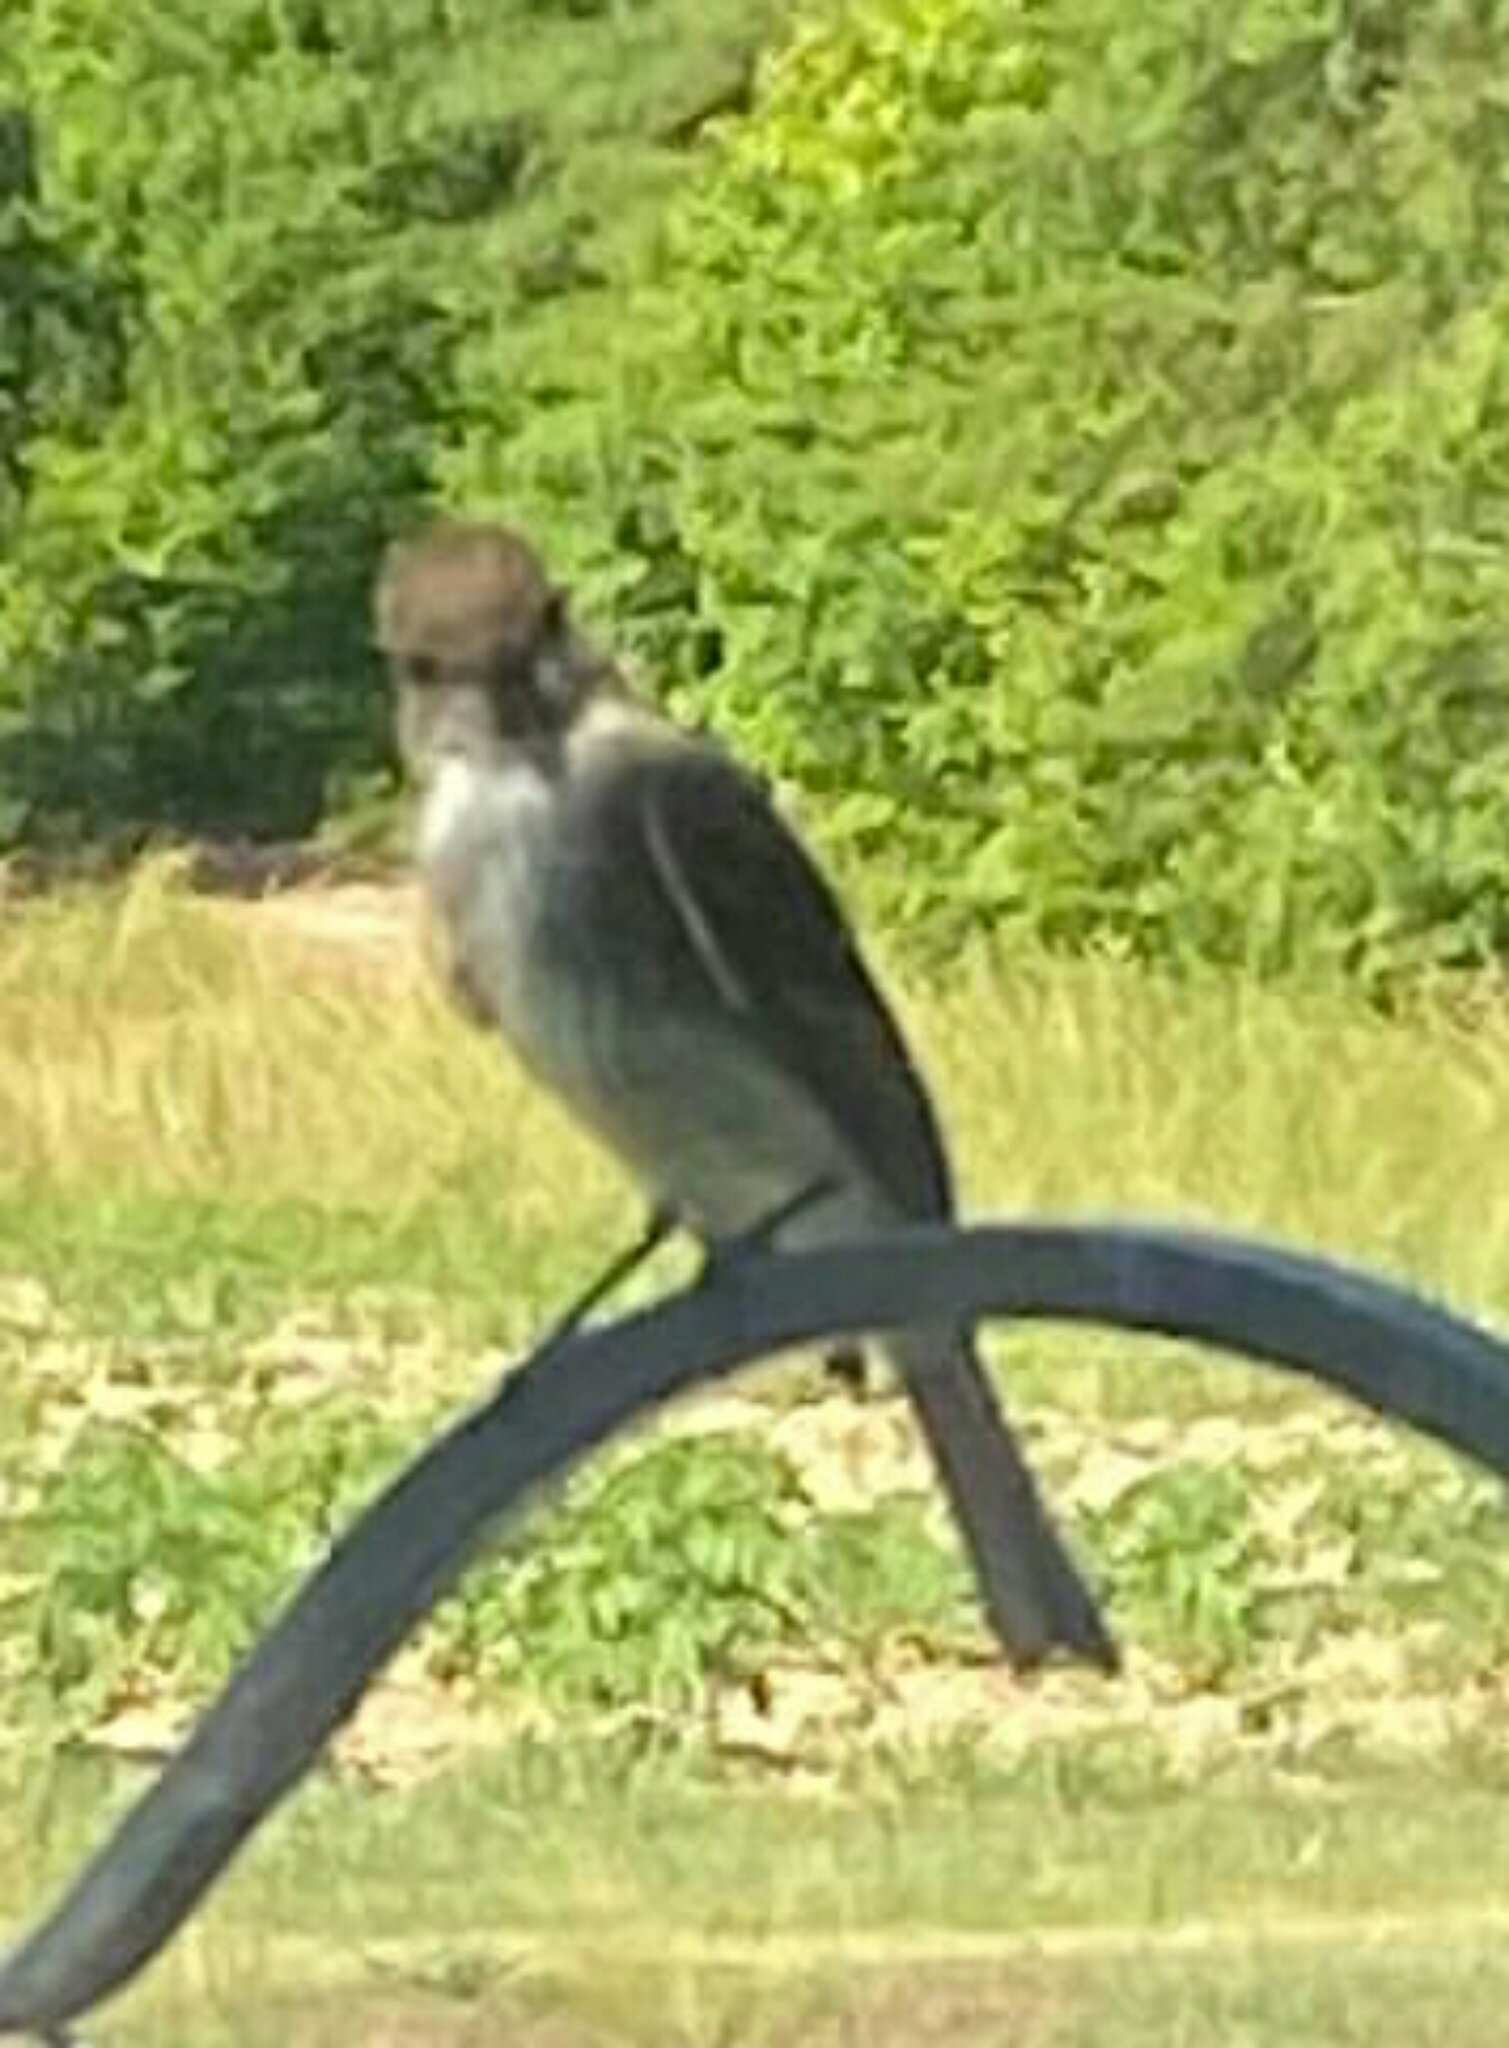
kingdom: Animalia
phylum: Chordata
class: Aves
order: Passeriformes
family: Tyrannidae
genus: Sayornis
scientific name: Sayornis phoebe
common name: Eastern phoebe
